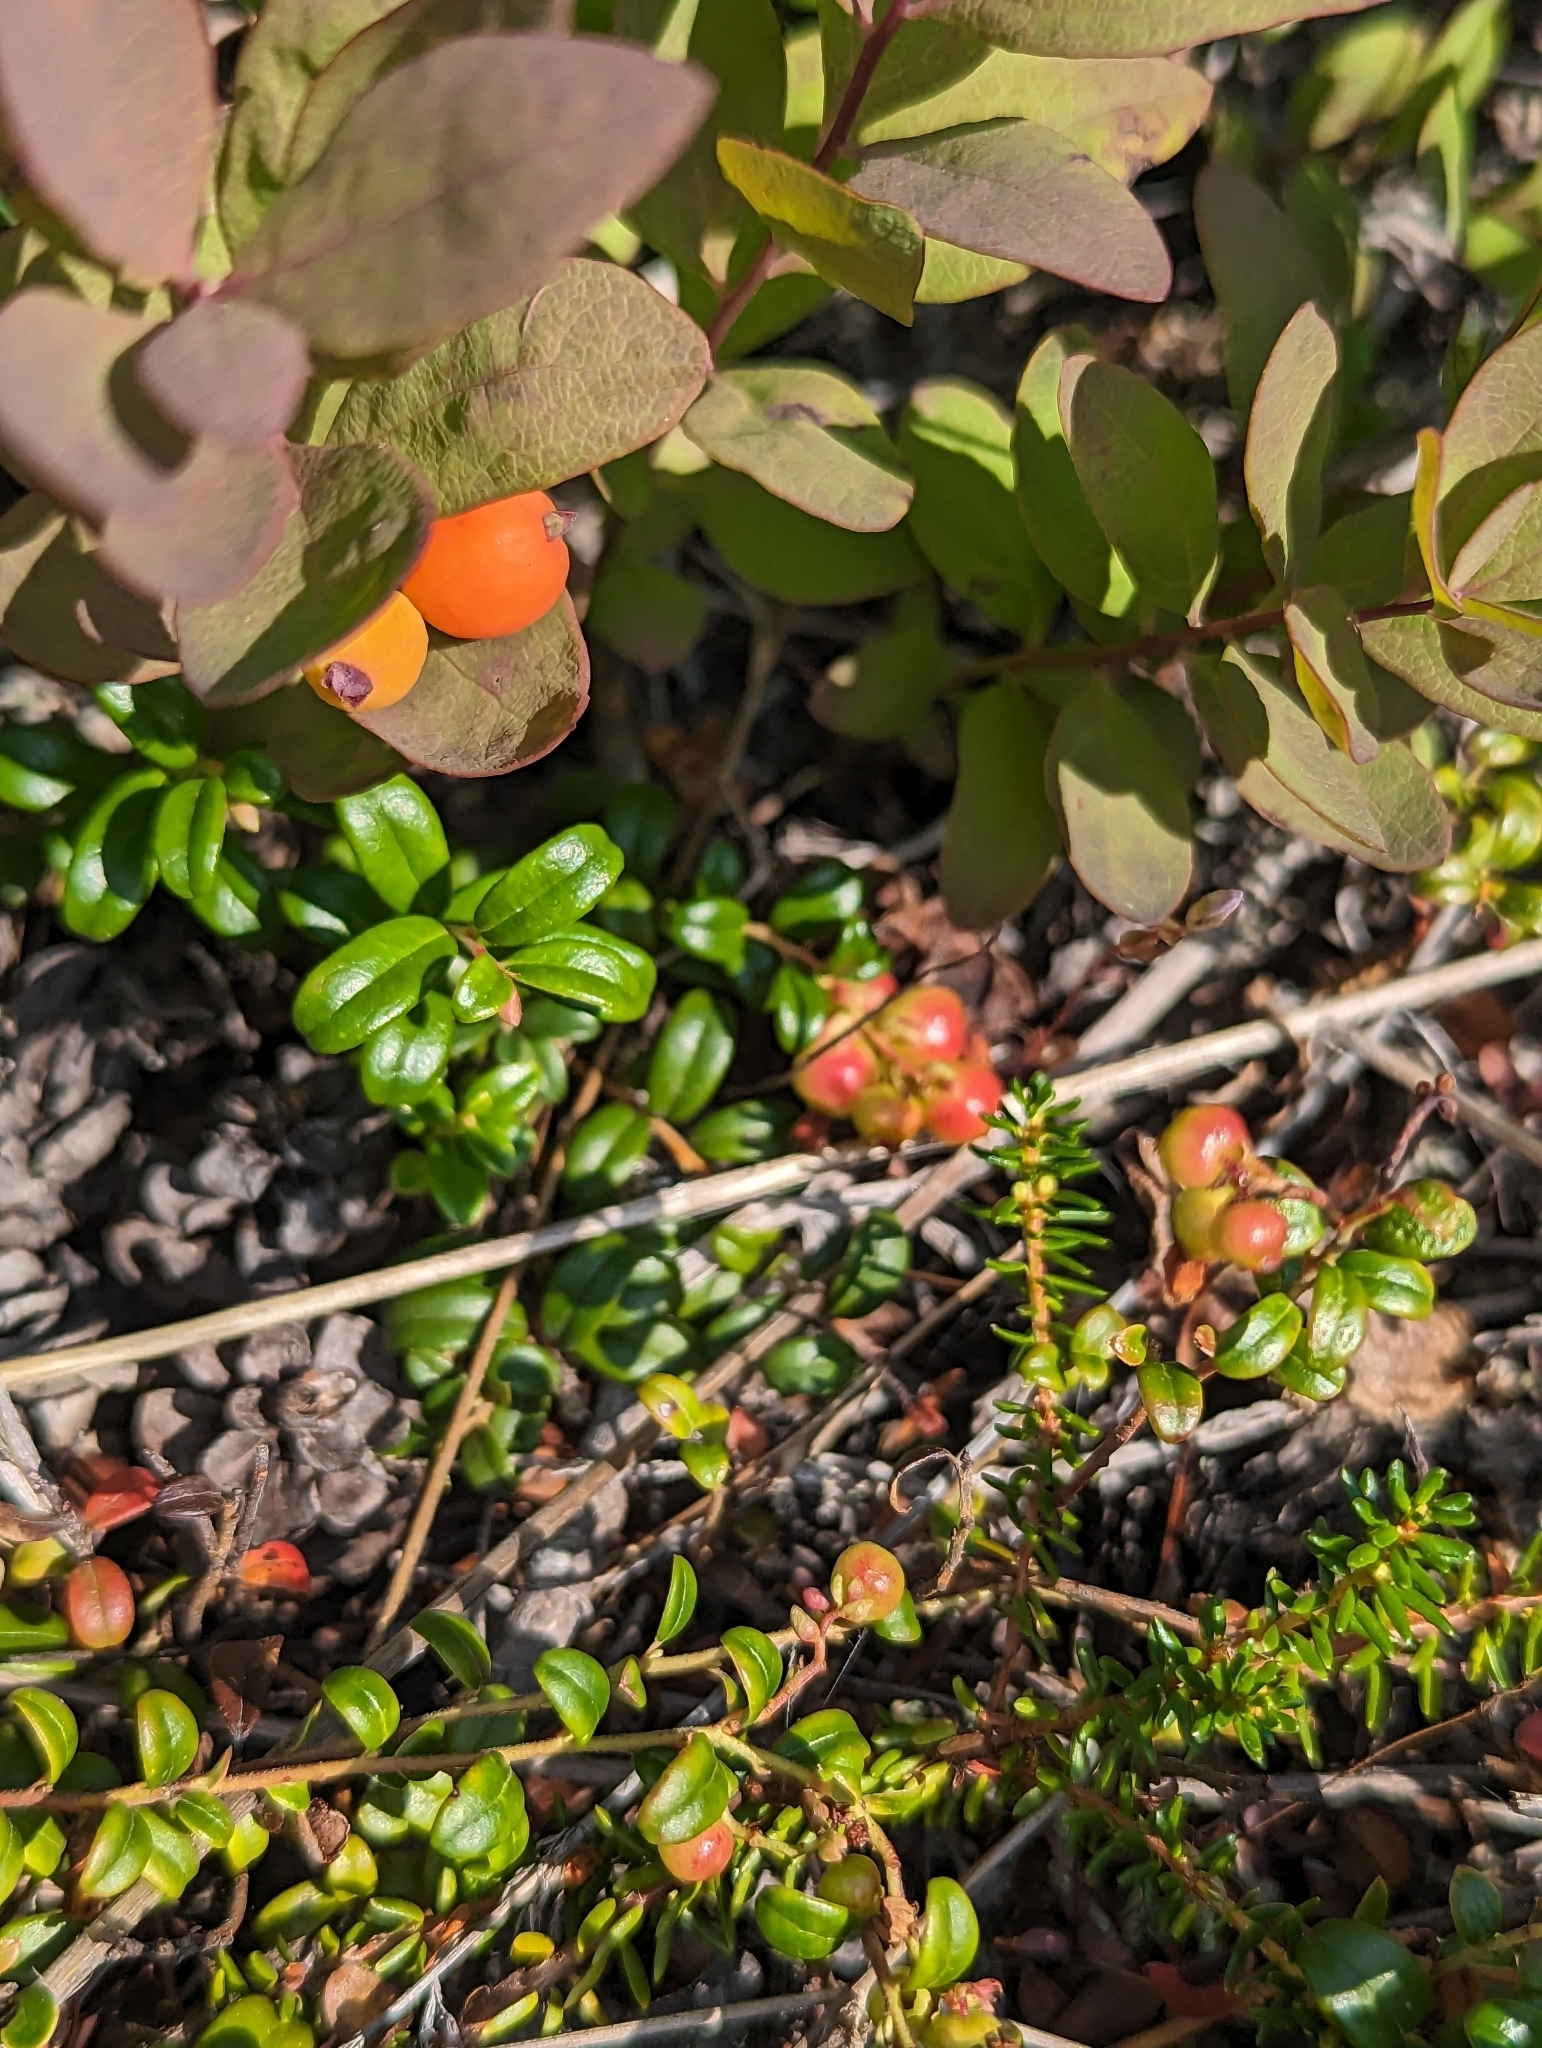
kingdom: Plantae
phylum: Tracheophyta
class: Magnoliopsida
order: Ericales
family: Ericaceae
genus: Vaccinium
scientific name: Vaccinium vitis-idaea
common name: Cowberry
